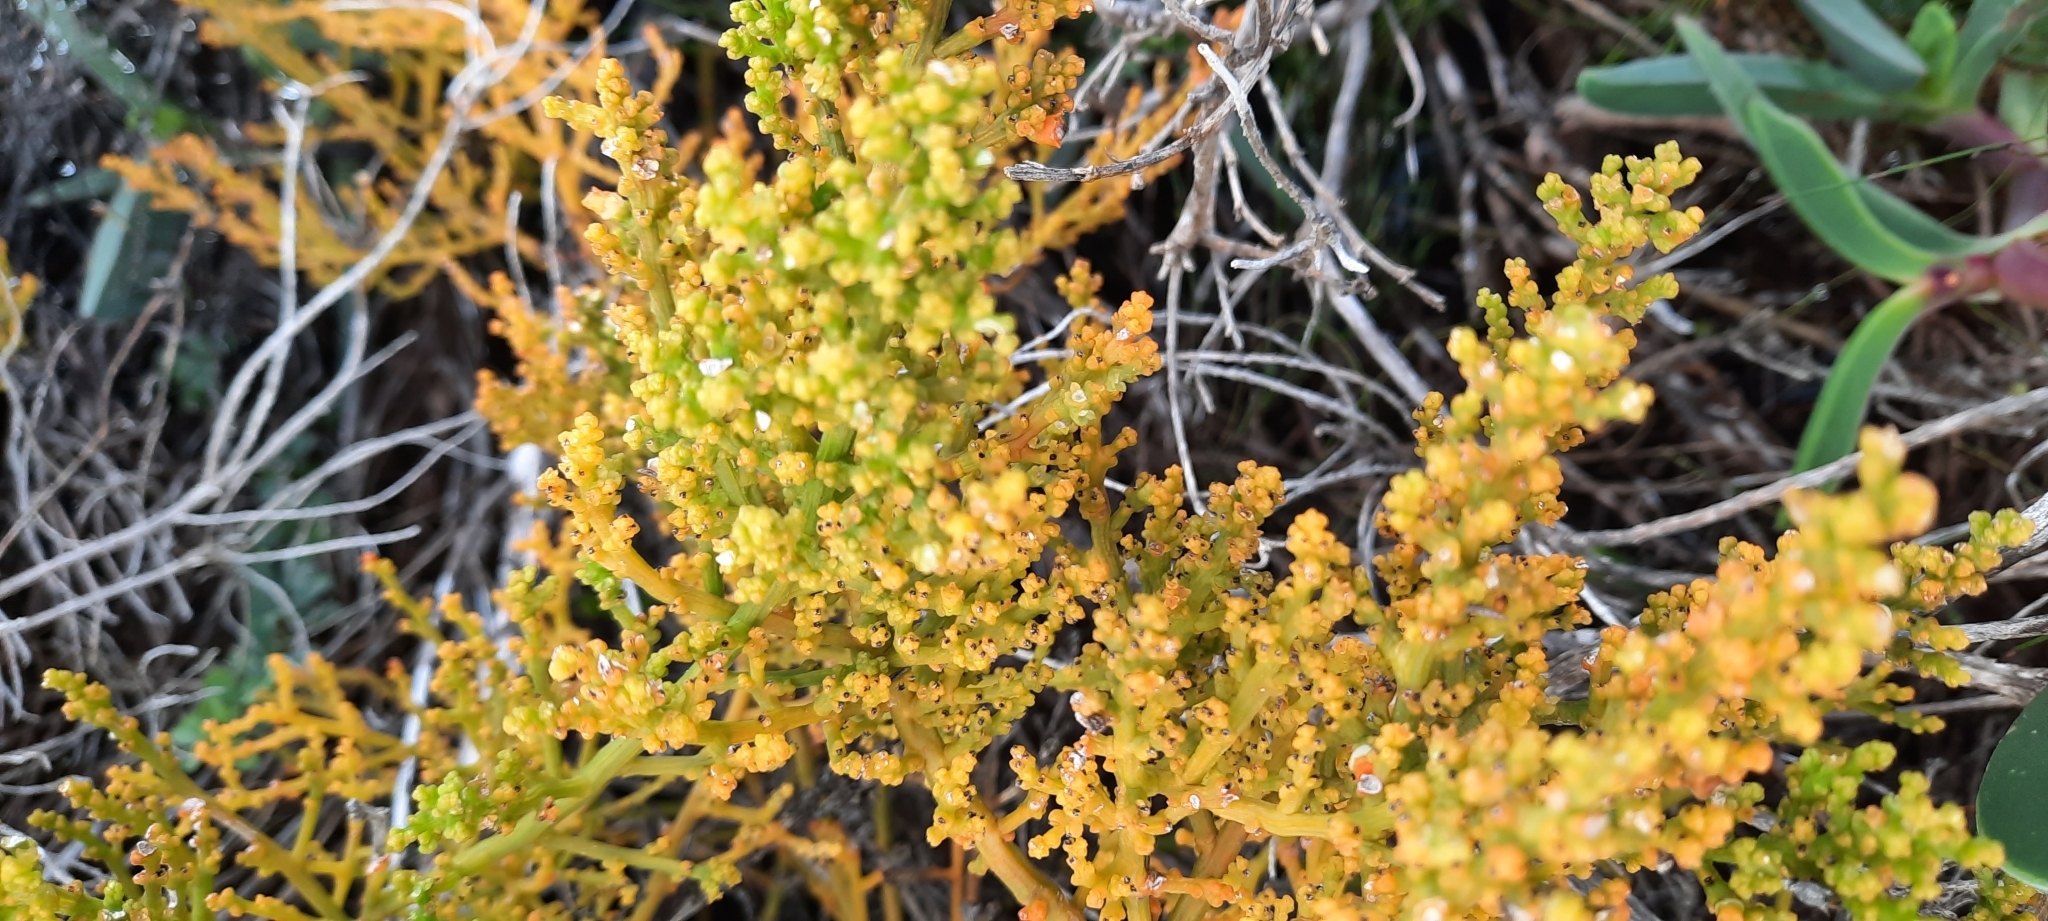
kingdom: Plantae
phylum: Tracheophyta
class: Magnoliopsida
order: Santalales
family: Thesiaceae
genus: Thesium
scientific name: Thesium fragile
